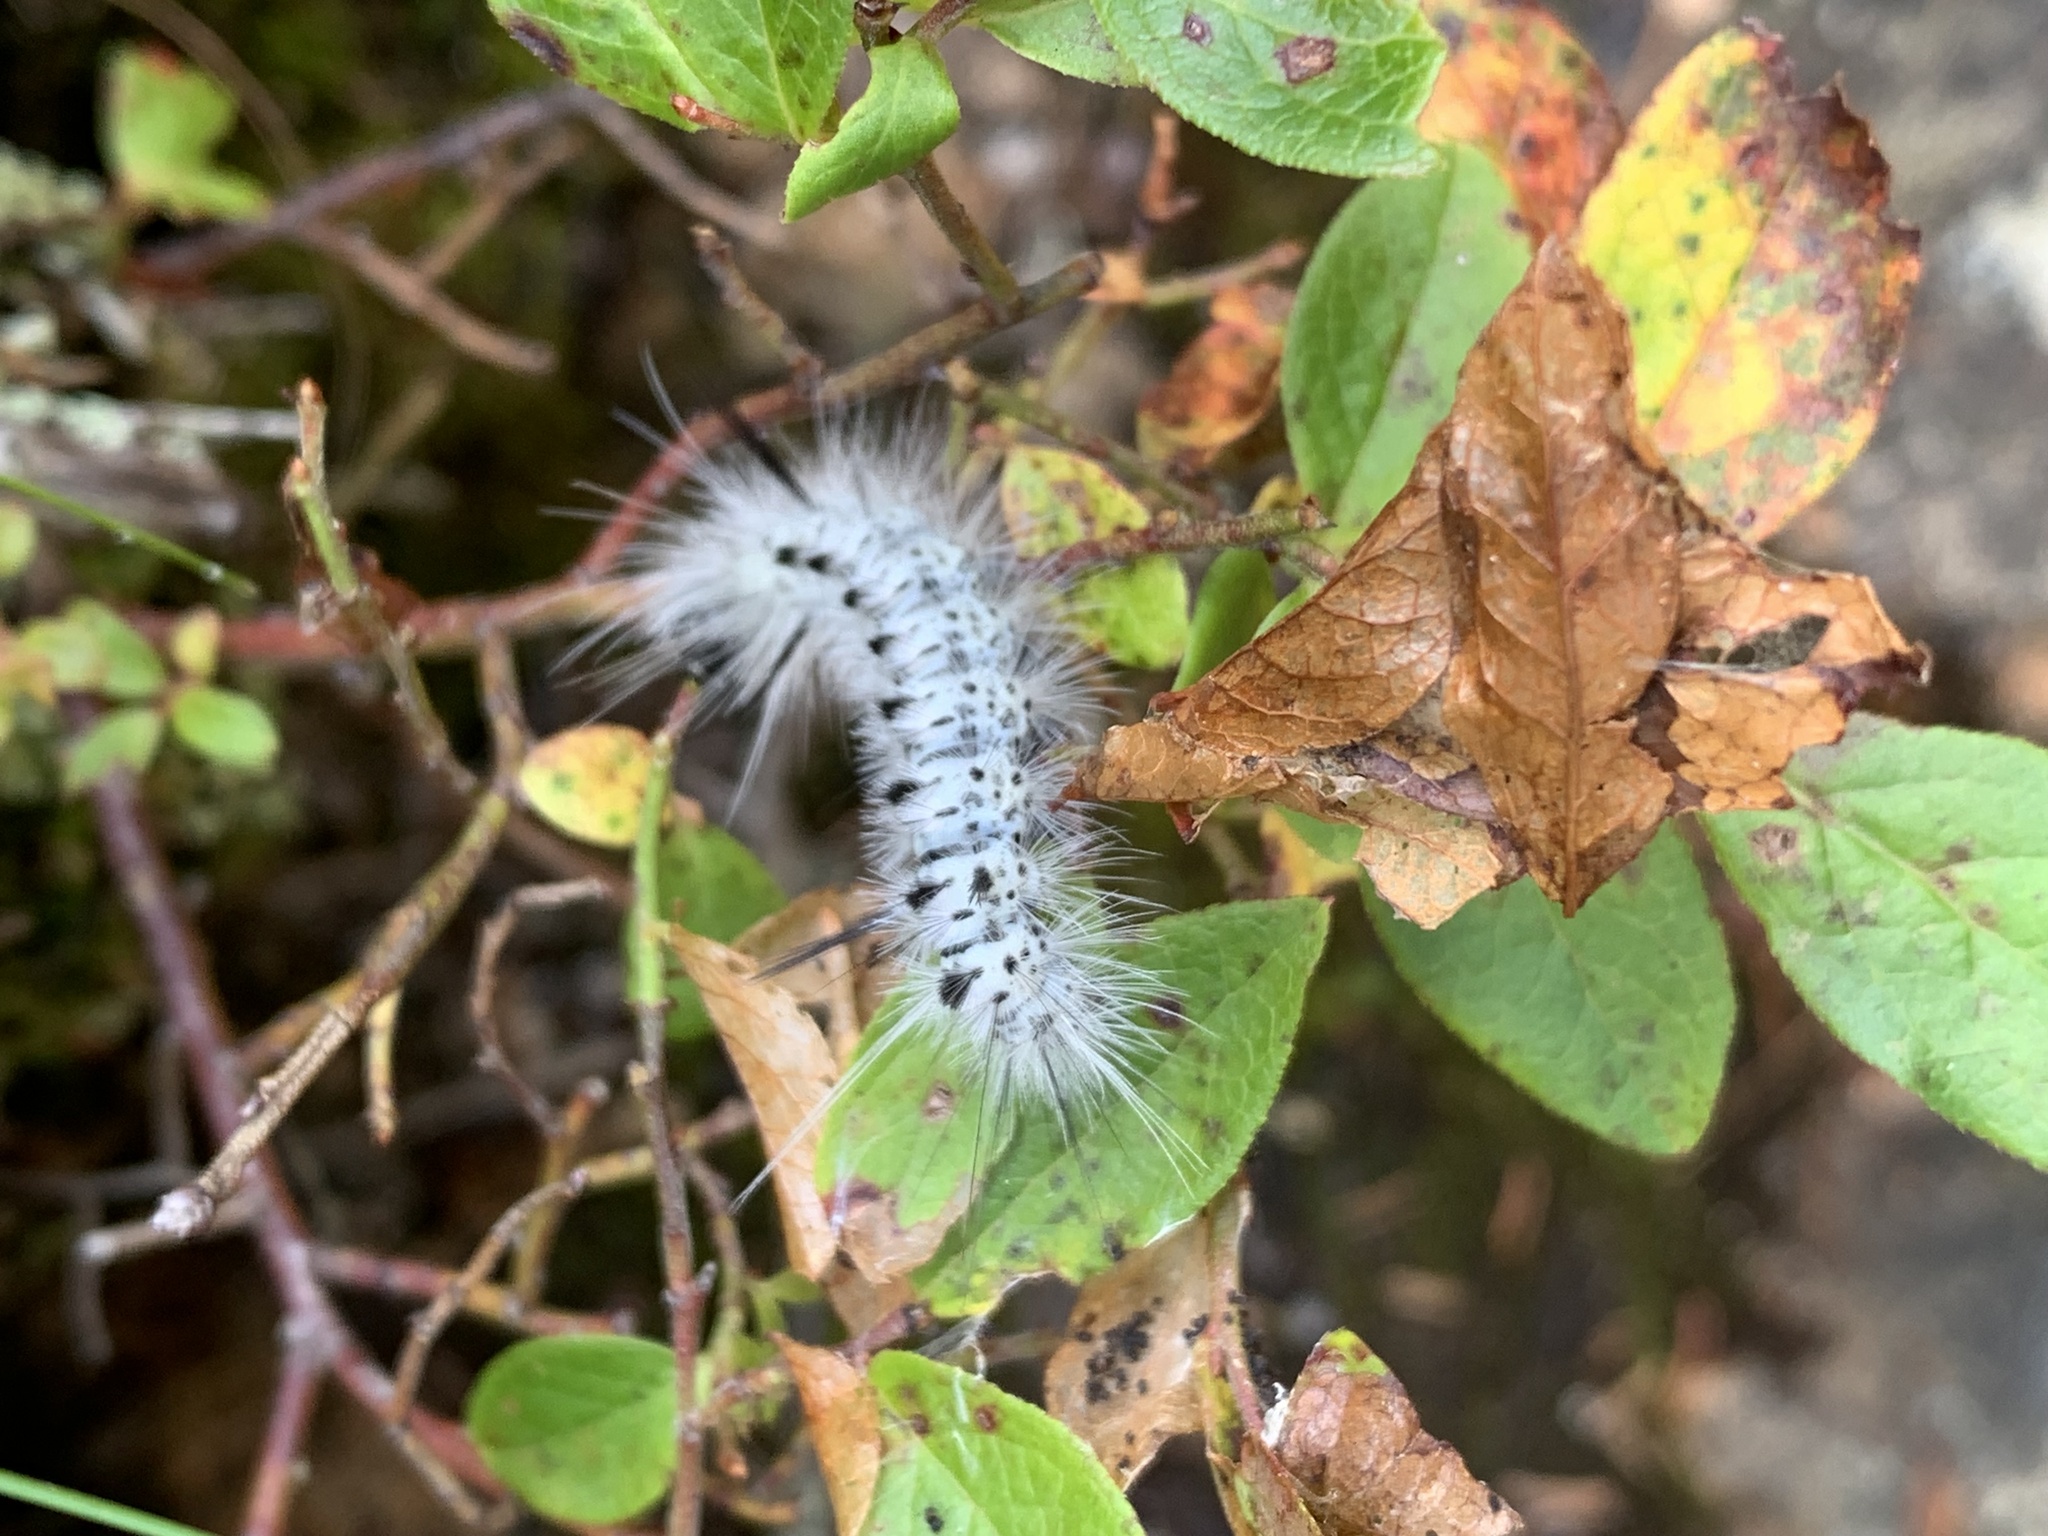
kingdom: Animalia
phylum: Arthropoda
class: Insecta
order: Lepidoptera
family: Erebidae
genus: Lophocampa
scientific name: Lophocampa caryae
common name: Hickory tussock moth
